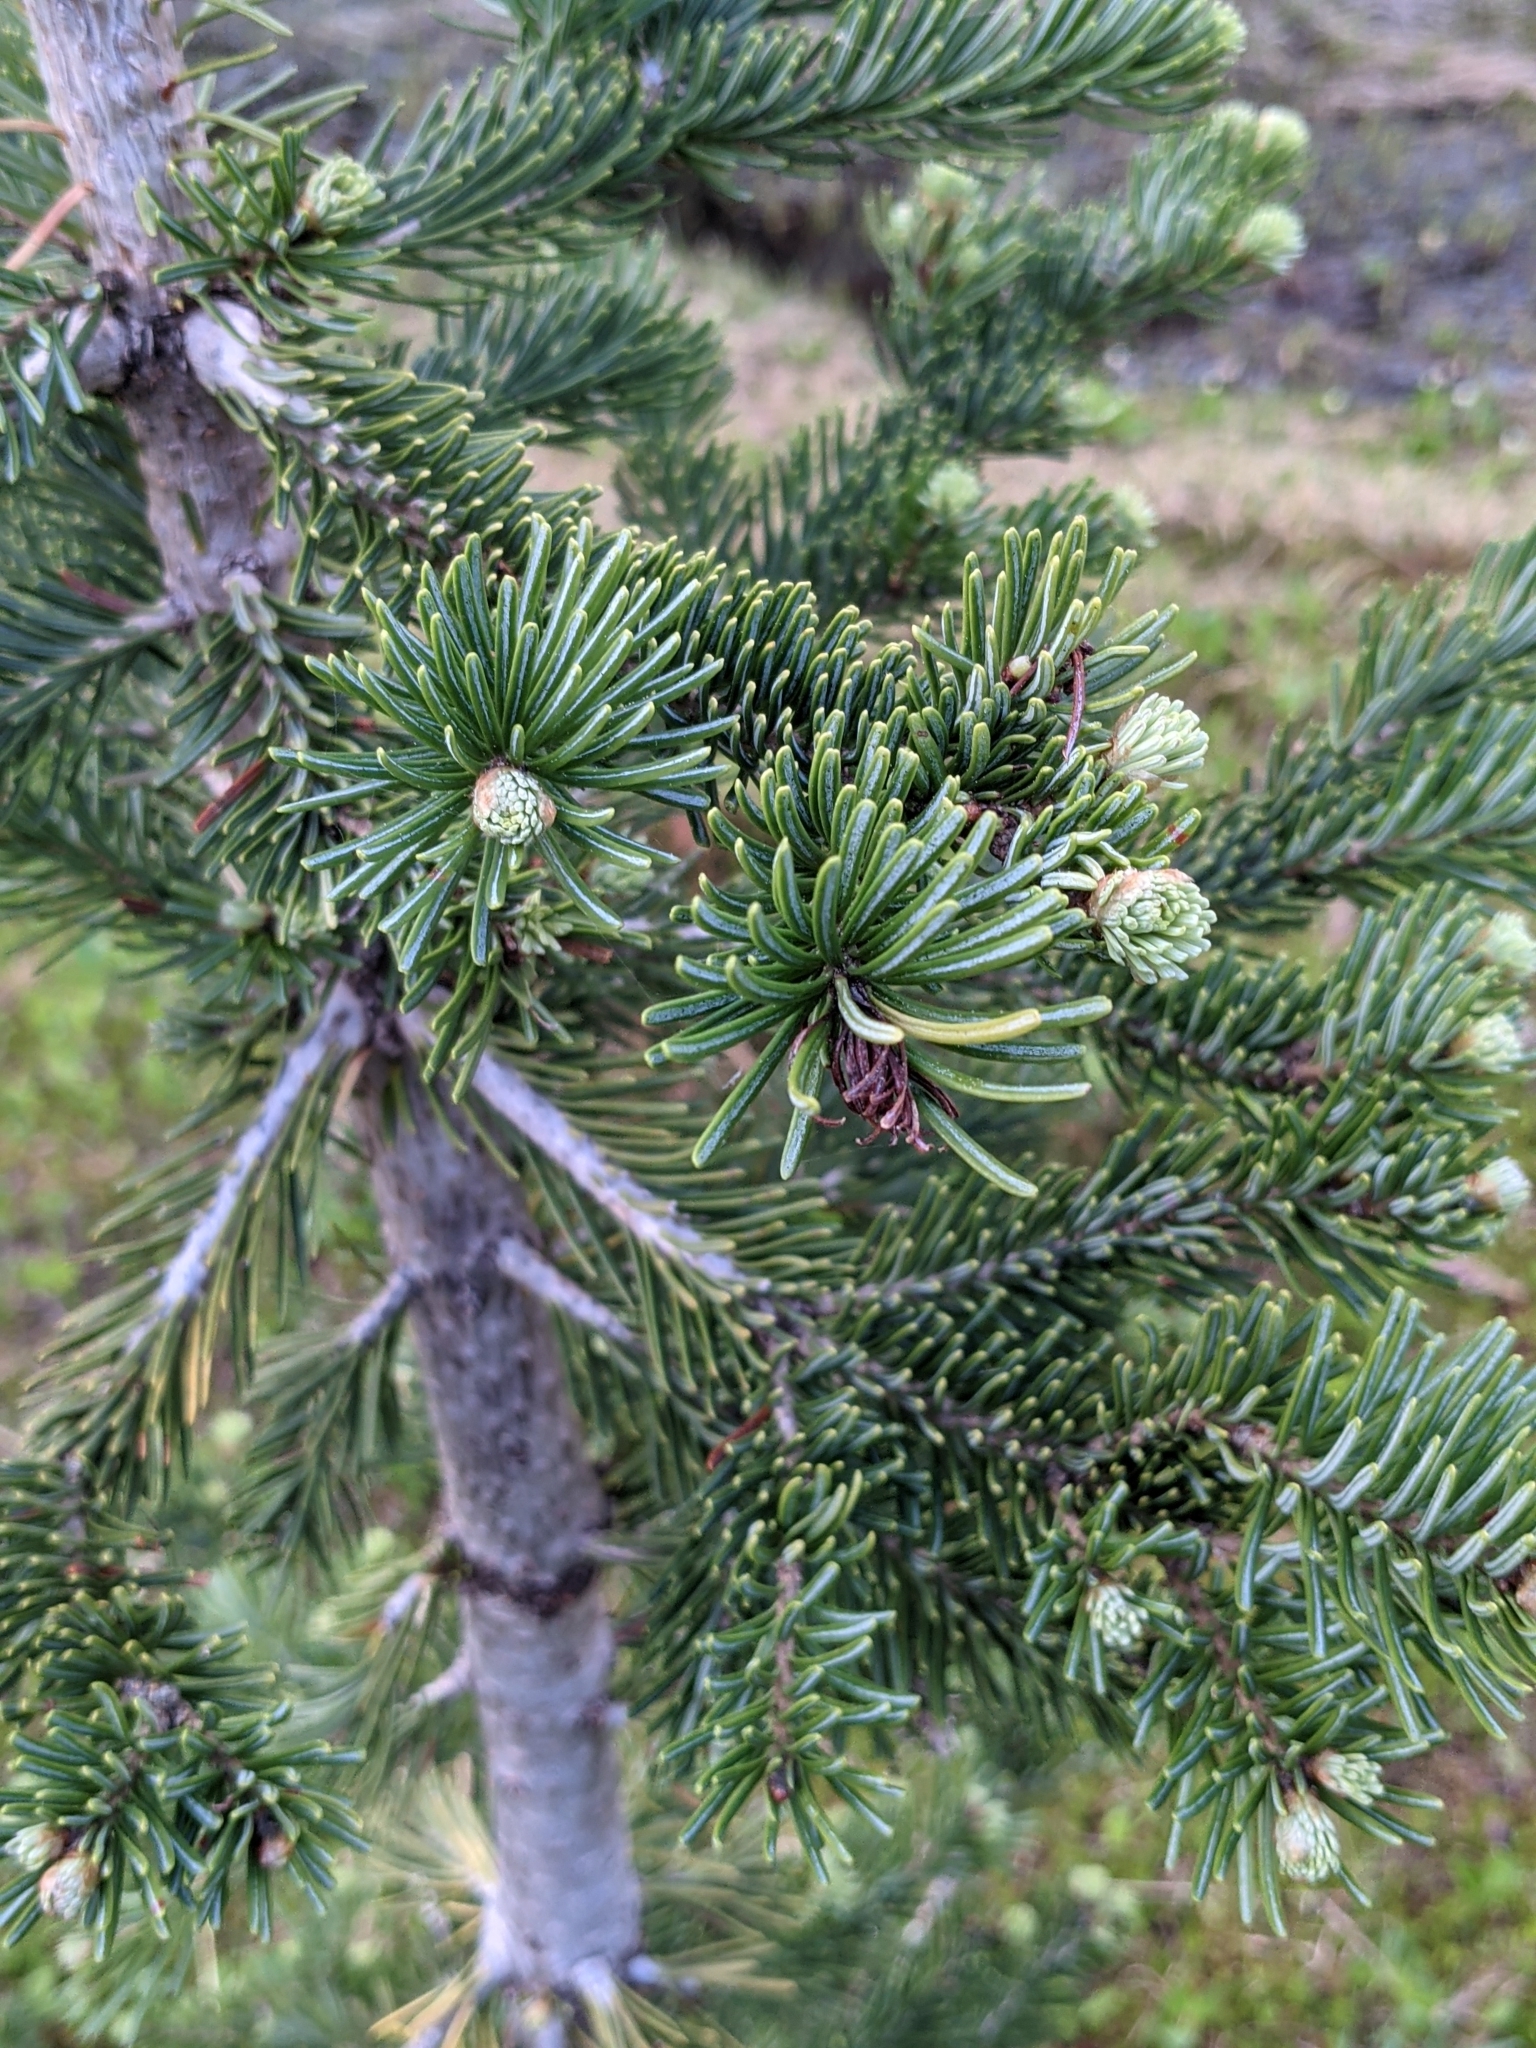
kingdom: Plantae
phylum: Tracheophyta
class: Pinopsida
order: Pinales
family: Pinaceae
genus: Abies
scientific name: Abies lasiocarpa
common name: Subalpine fir
